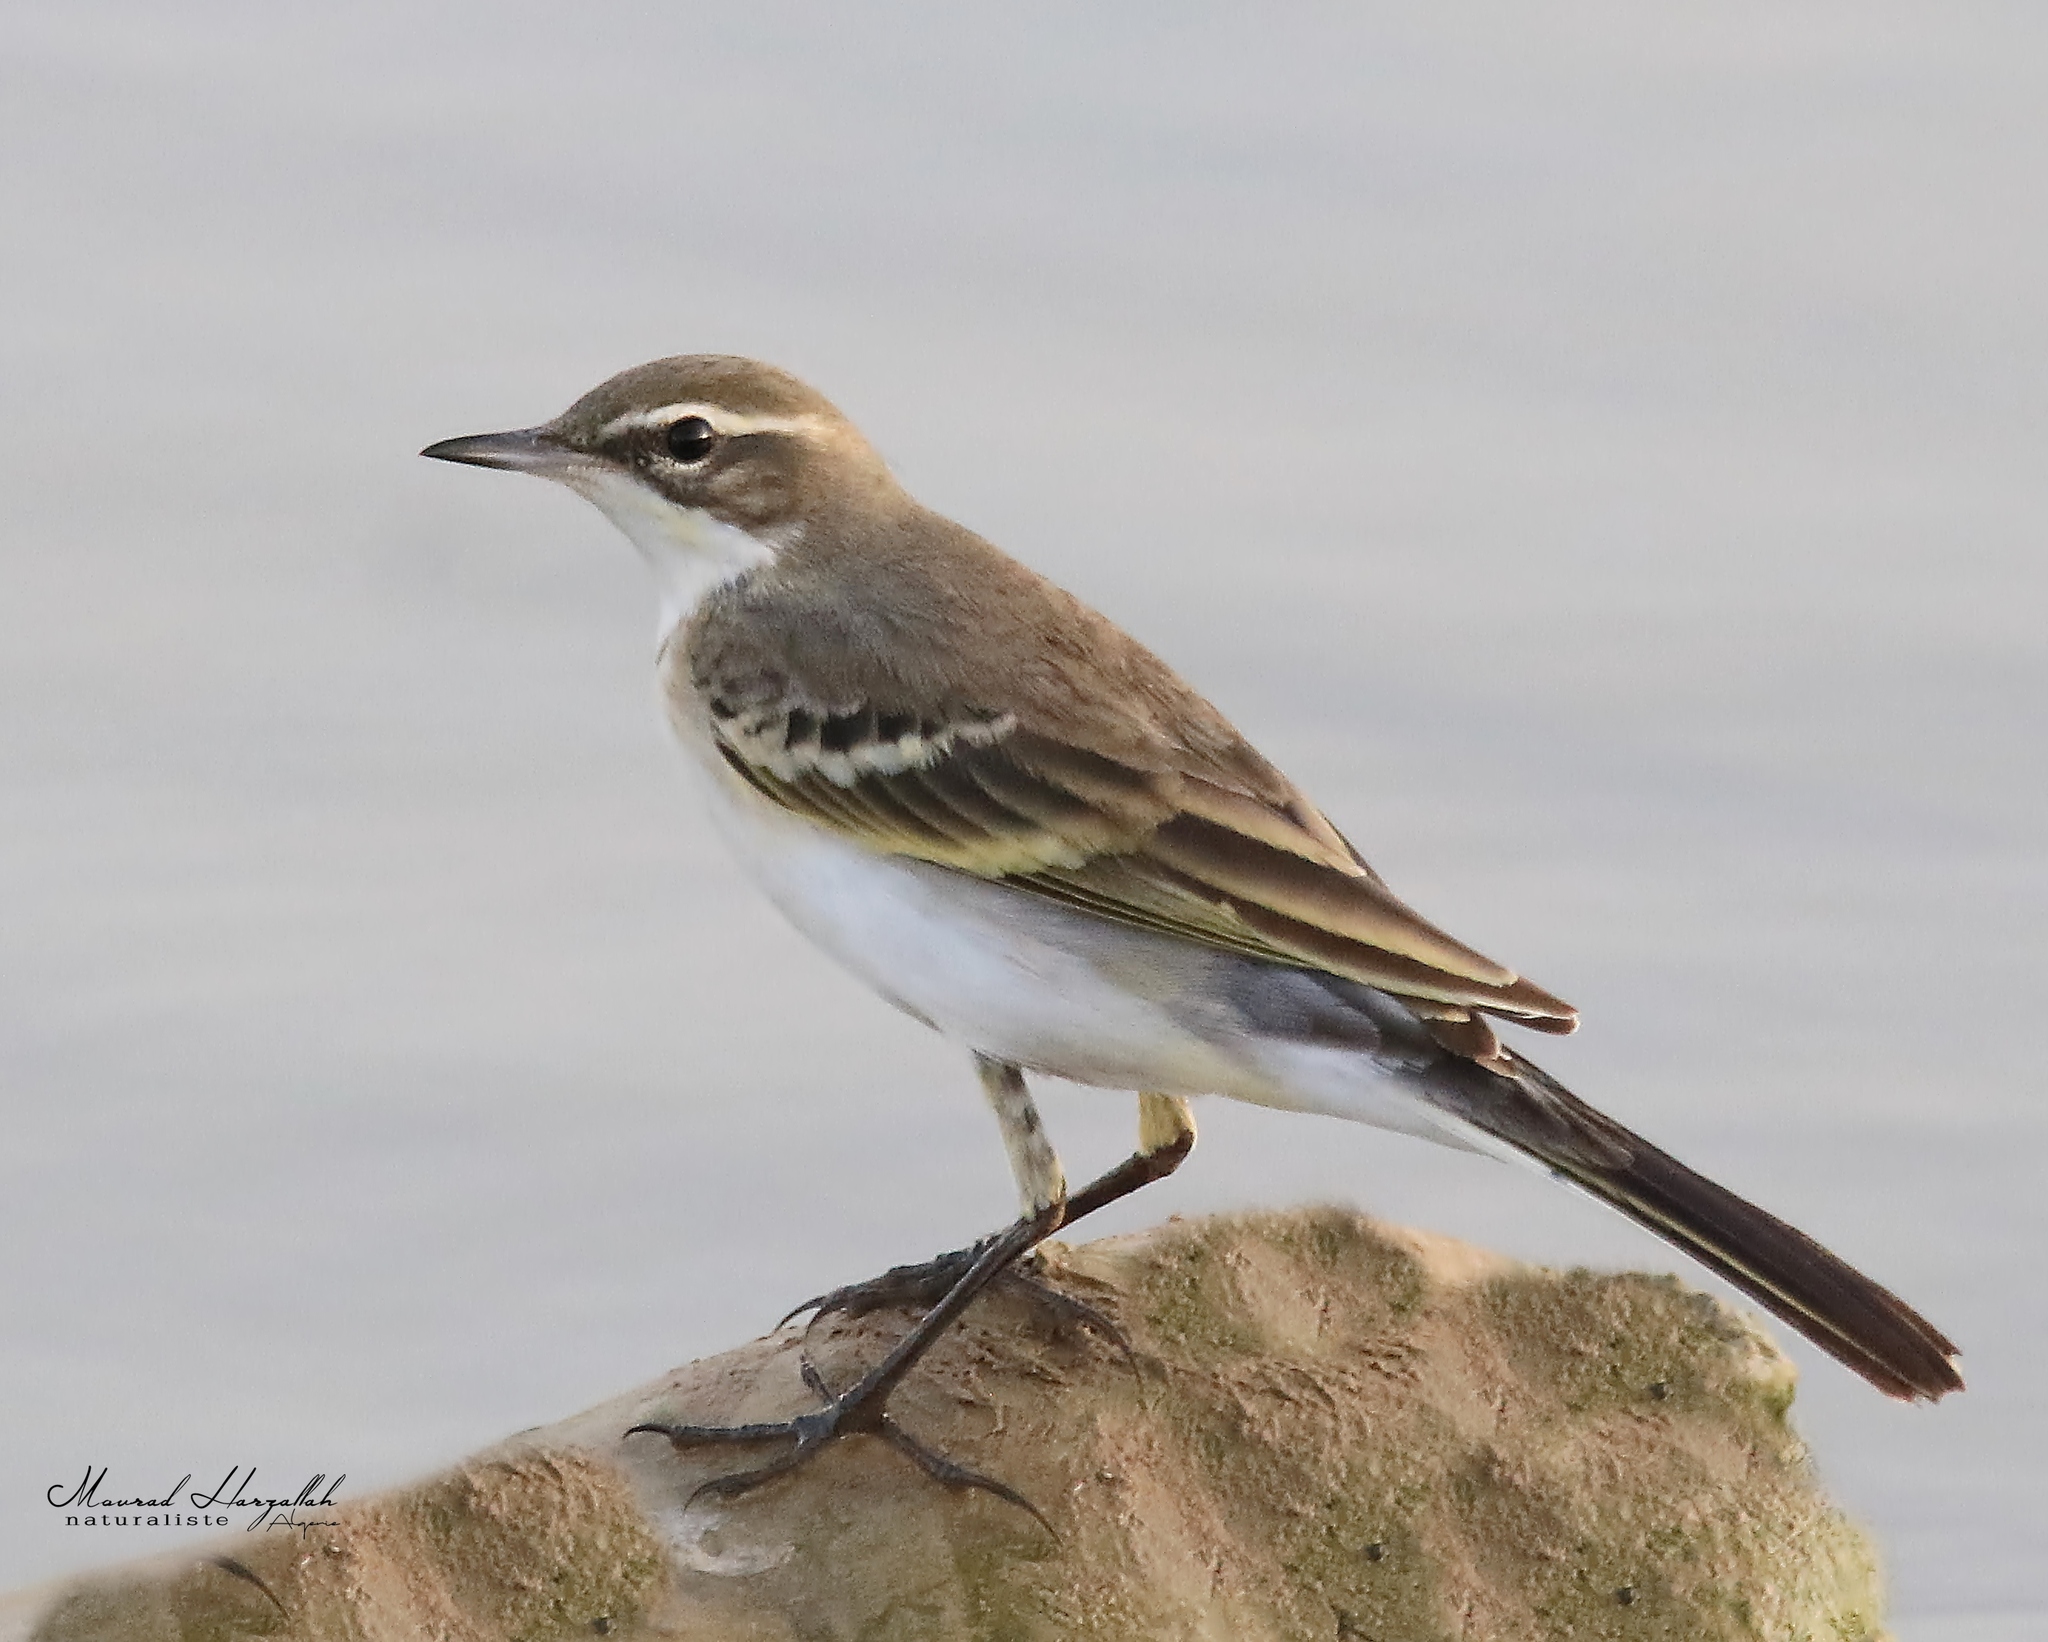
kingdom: Animalia
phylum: Chordata
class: Aves
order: Passeriformes
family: Motacillidae
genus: Motacilla
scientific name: Motacilla flava
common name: Western yellow wagtail
